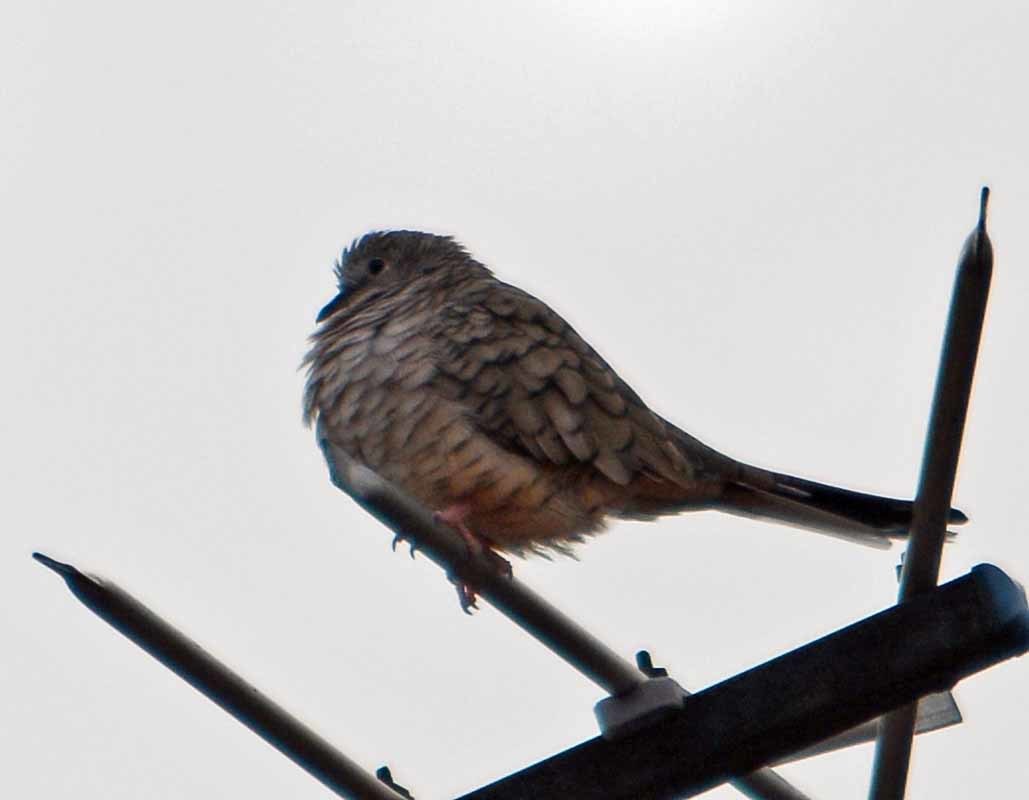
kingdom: Animalia
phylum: Chordata
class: Aves
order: Columbiformes
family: Columbidae
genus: Columbina
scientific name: Columbina inca
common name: Inca dove
